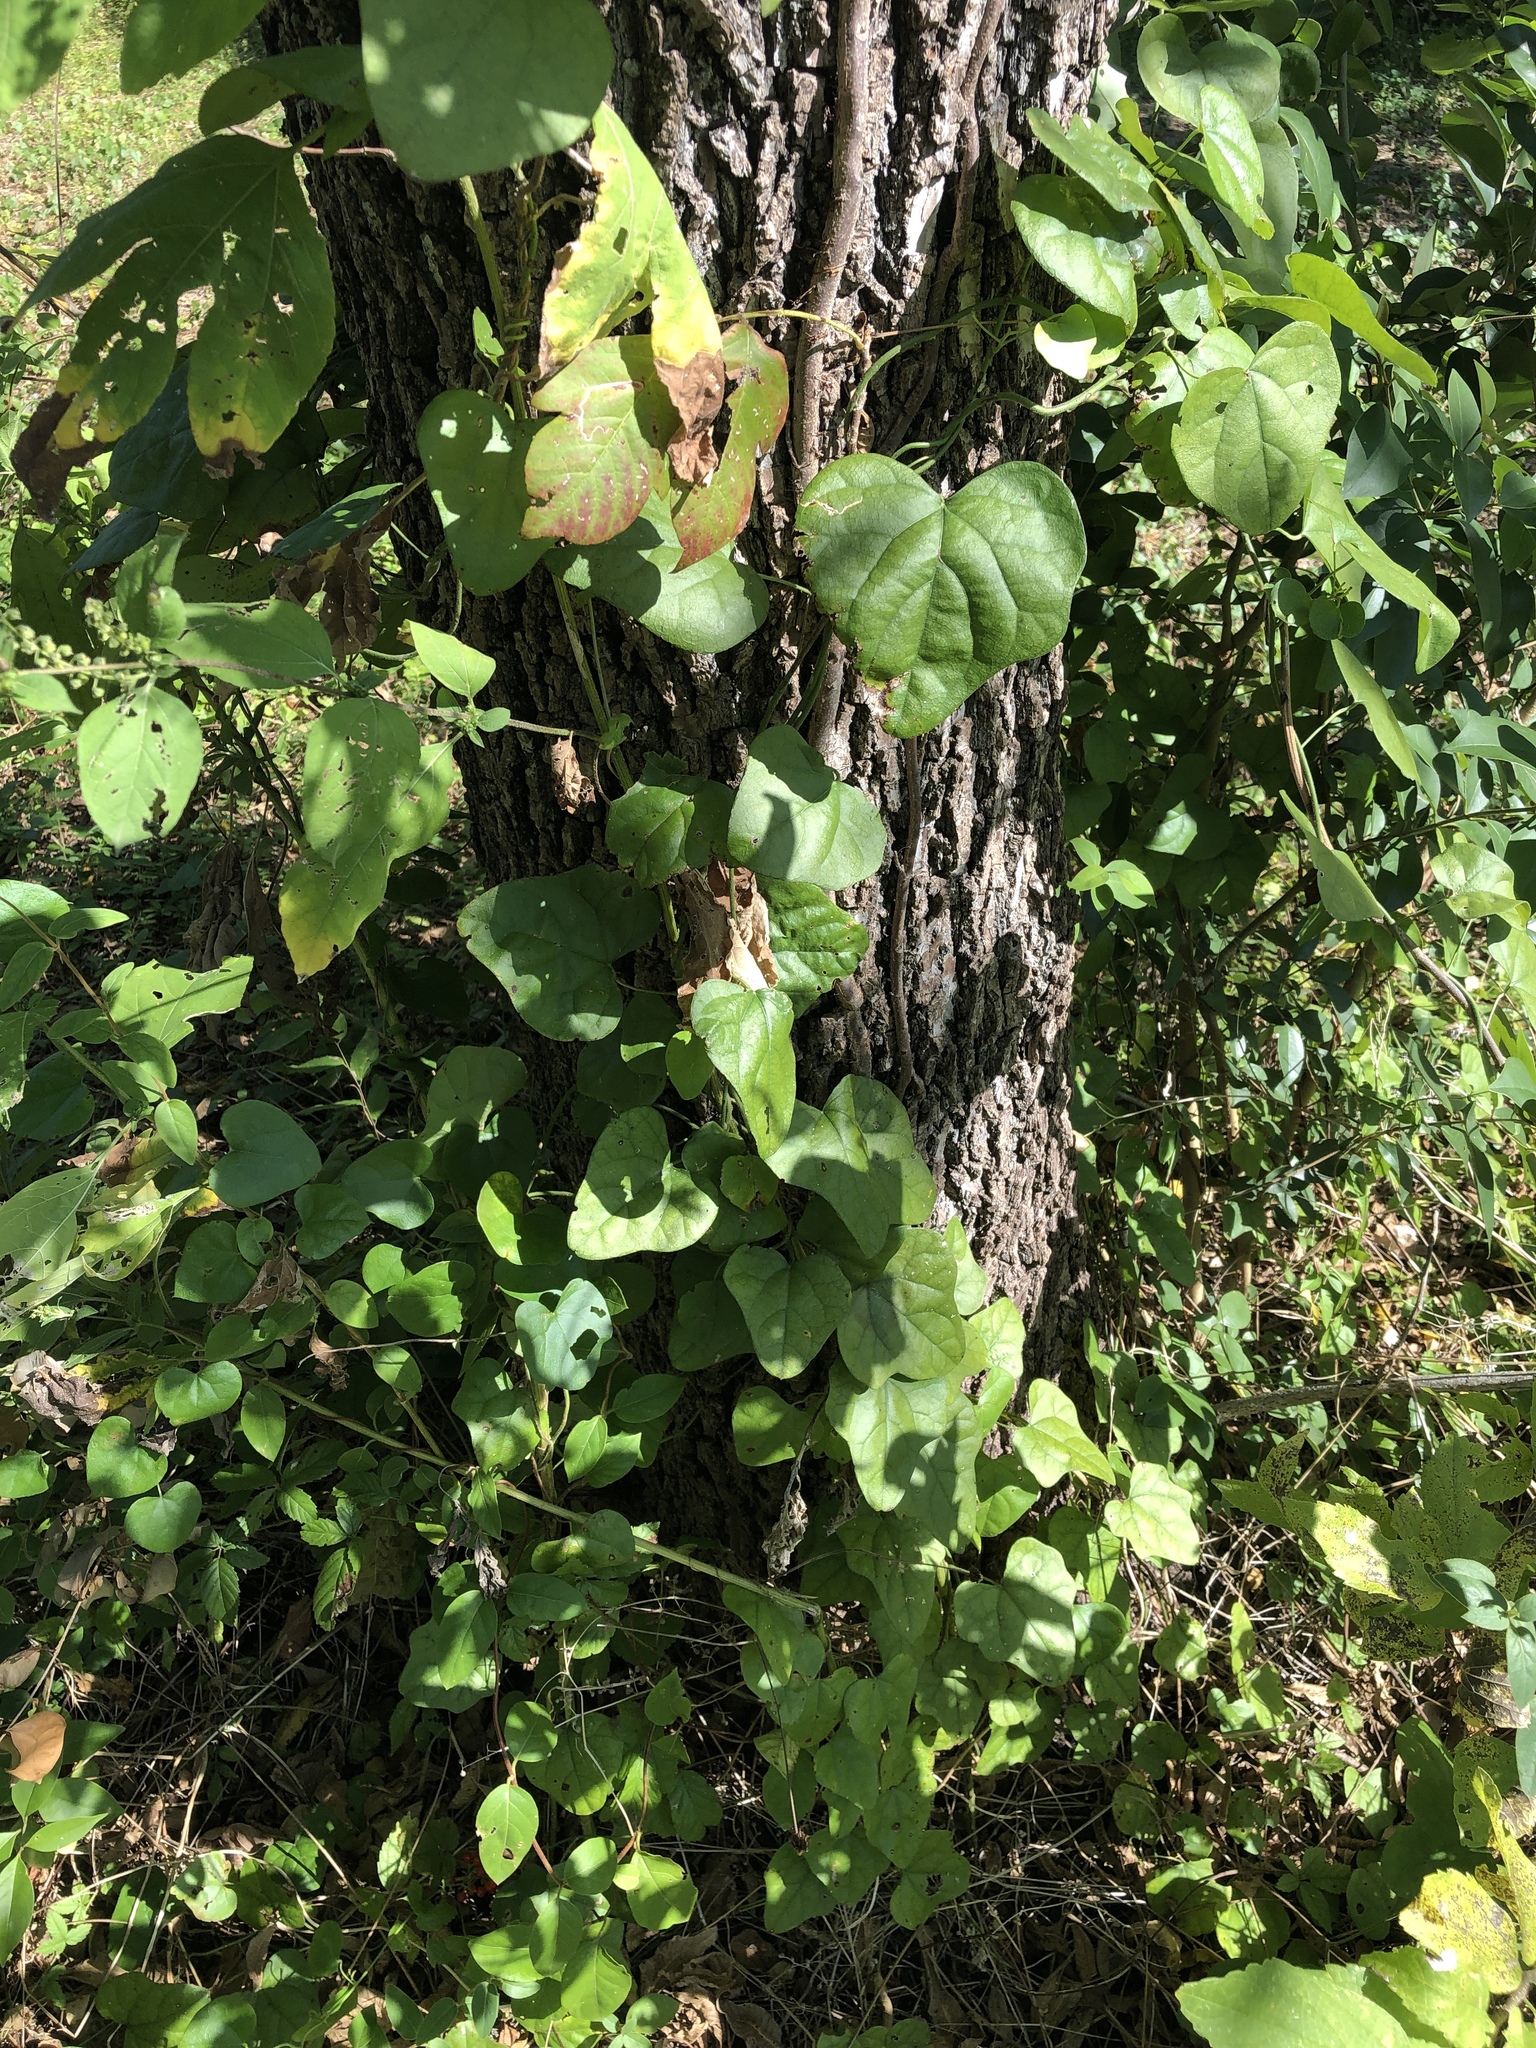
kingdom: Plantae
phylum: Tracheophyta
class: Magnoliopsida
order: Ranunculales
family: Menispermaceae
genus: Cocculus
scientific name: Cocculus carolinus
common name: Carolina moonseed
